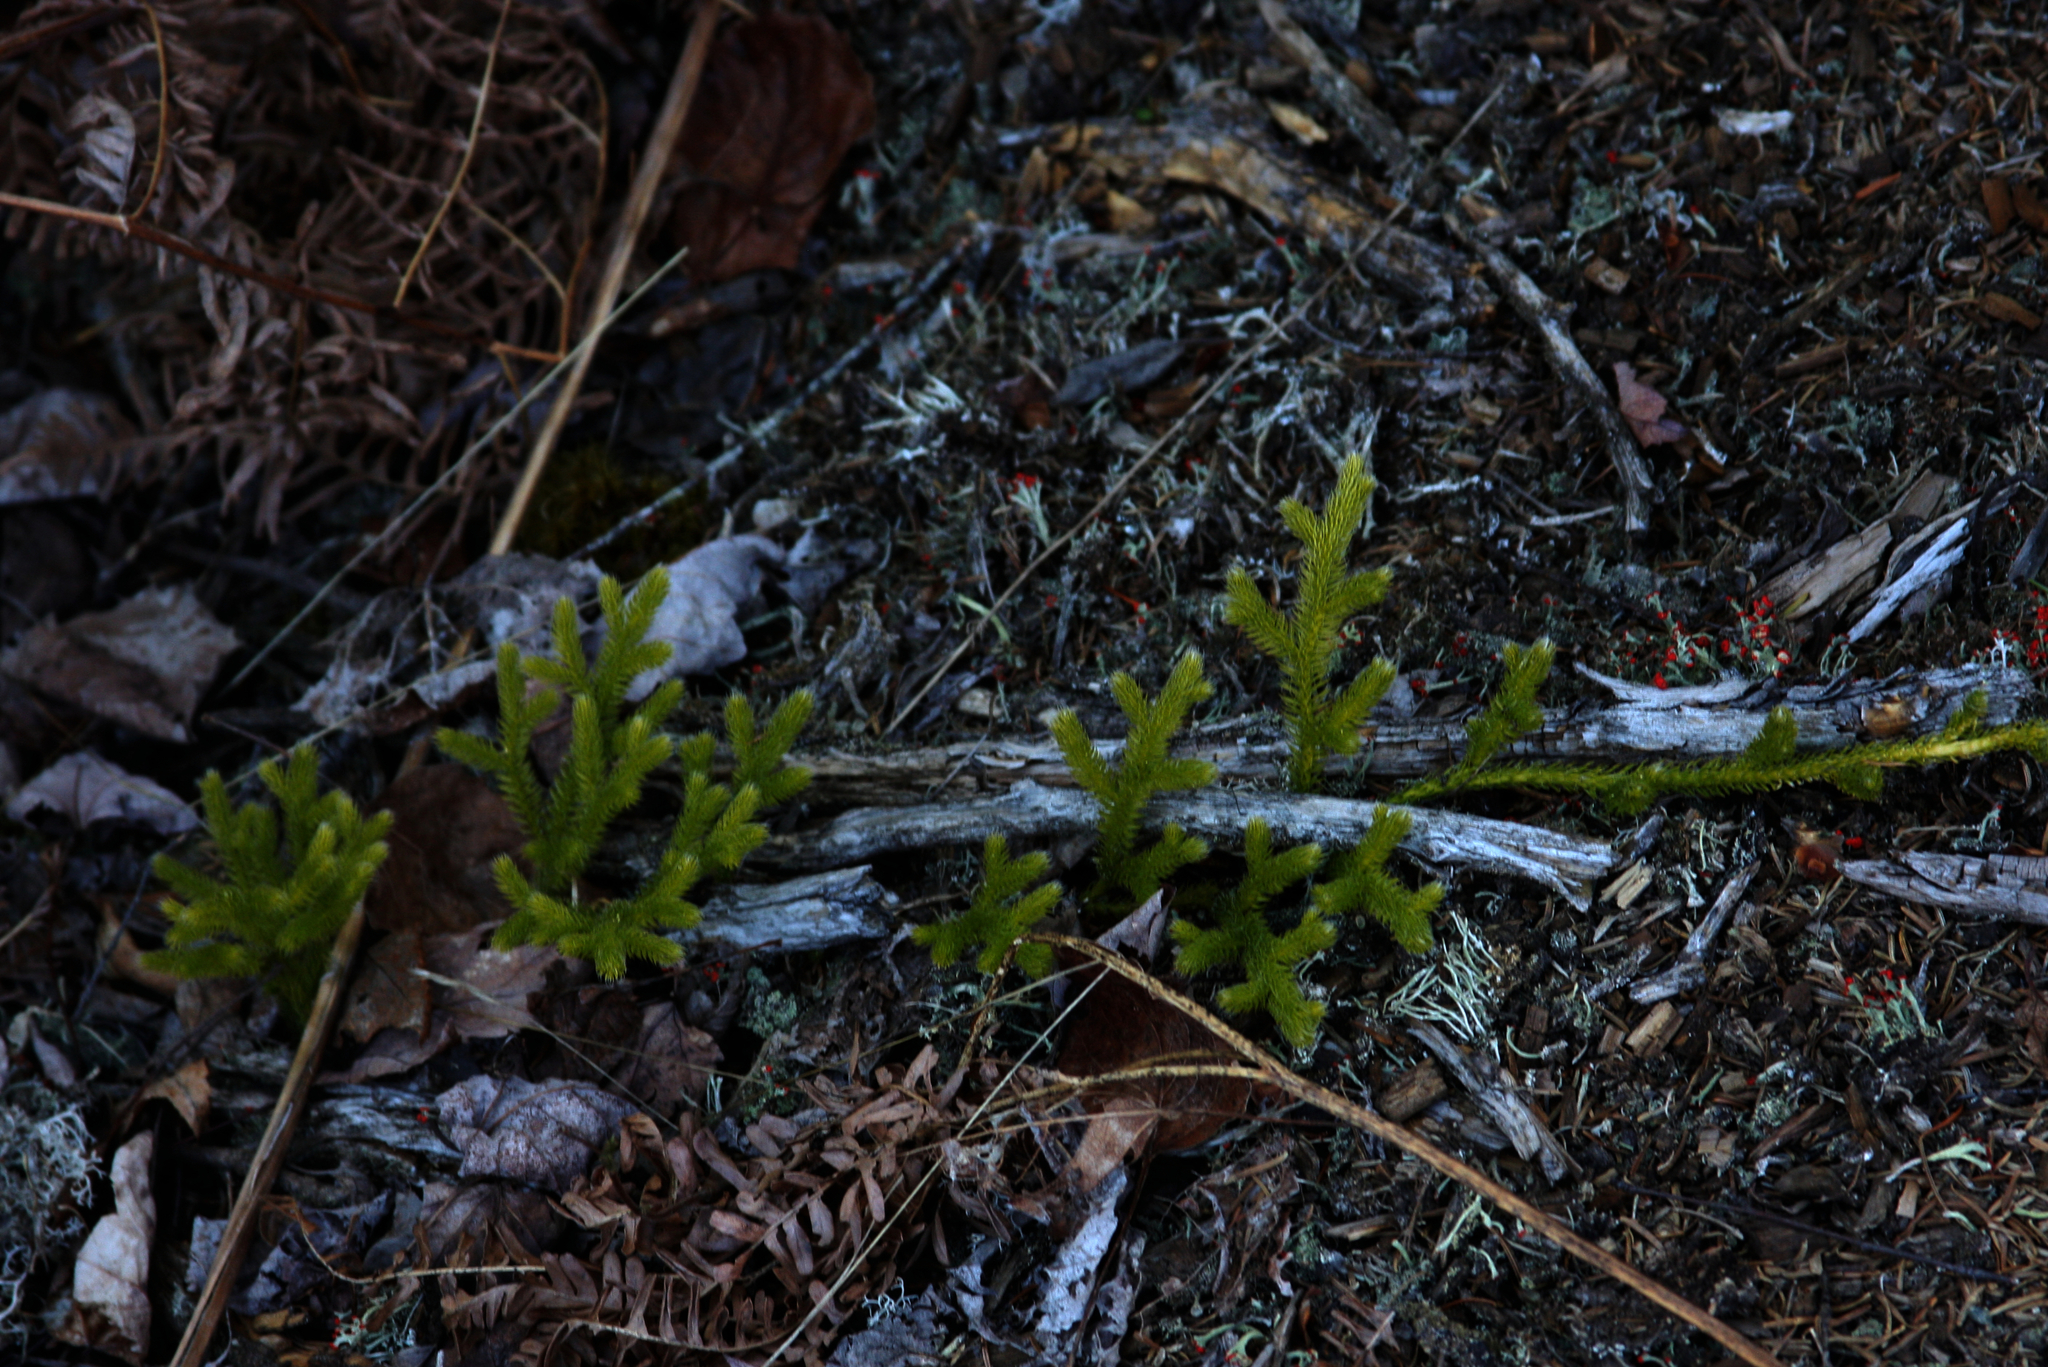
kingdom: Plantae
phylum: Tracheophyta
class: Lycopodiopsida
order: Lycopodiales
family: Lycopodiaceae
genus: Lycopodium
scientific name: Lycopodium clavatum
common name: Stag's-horn clubmoss
